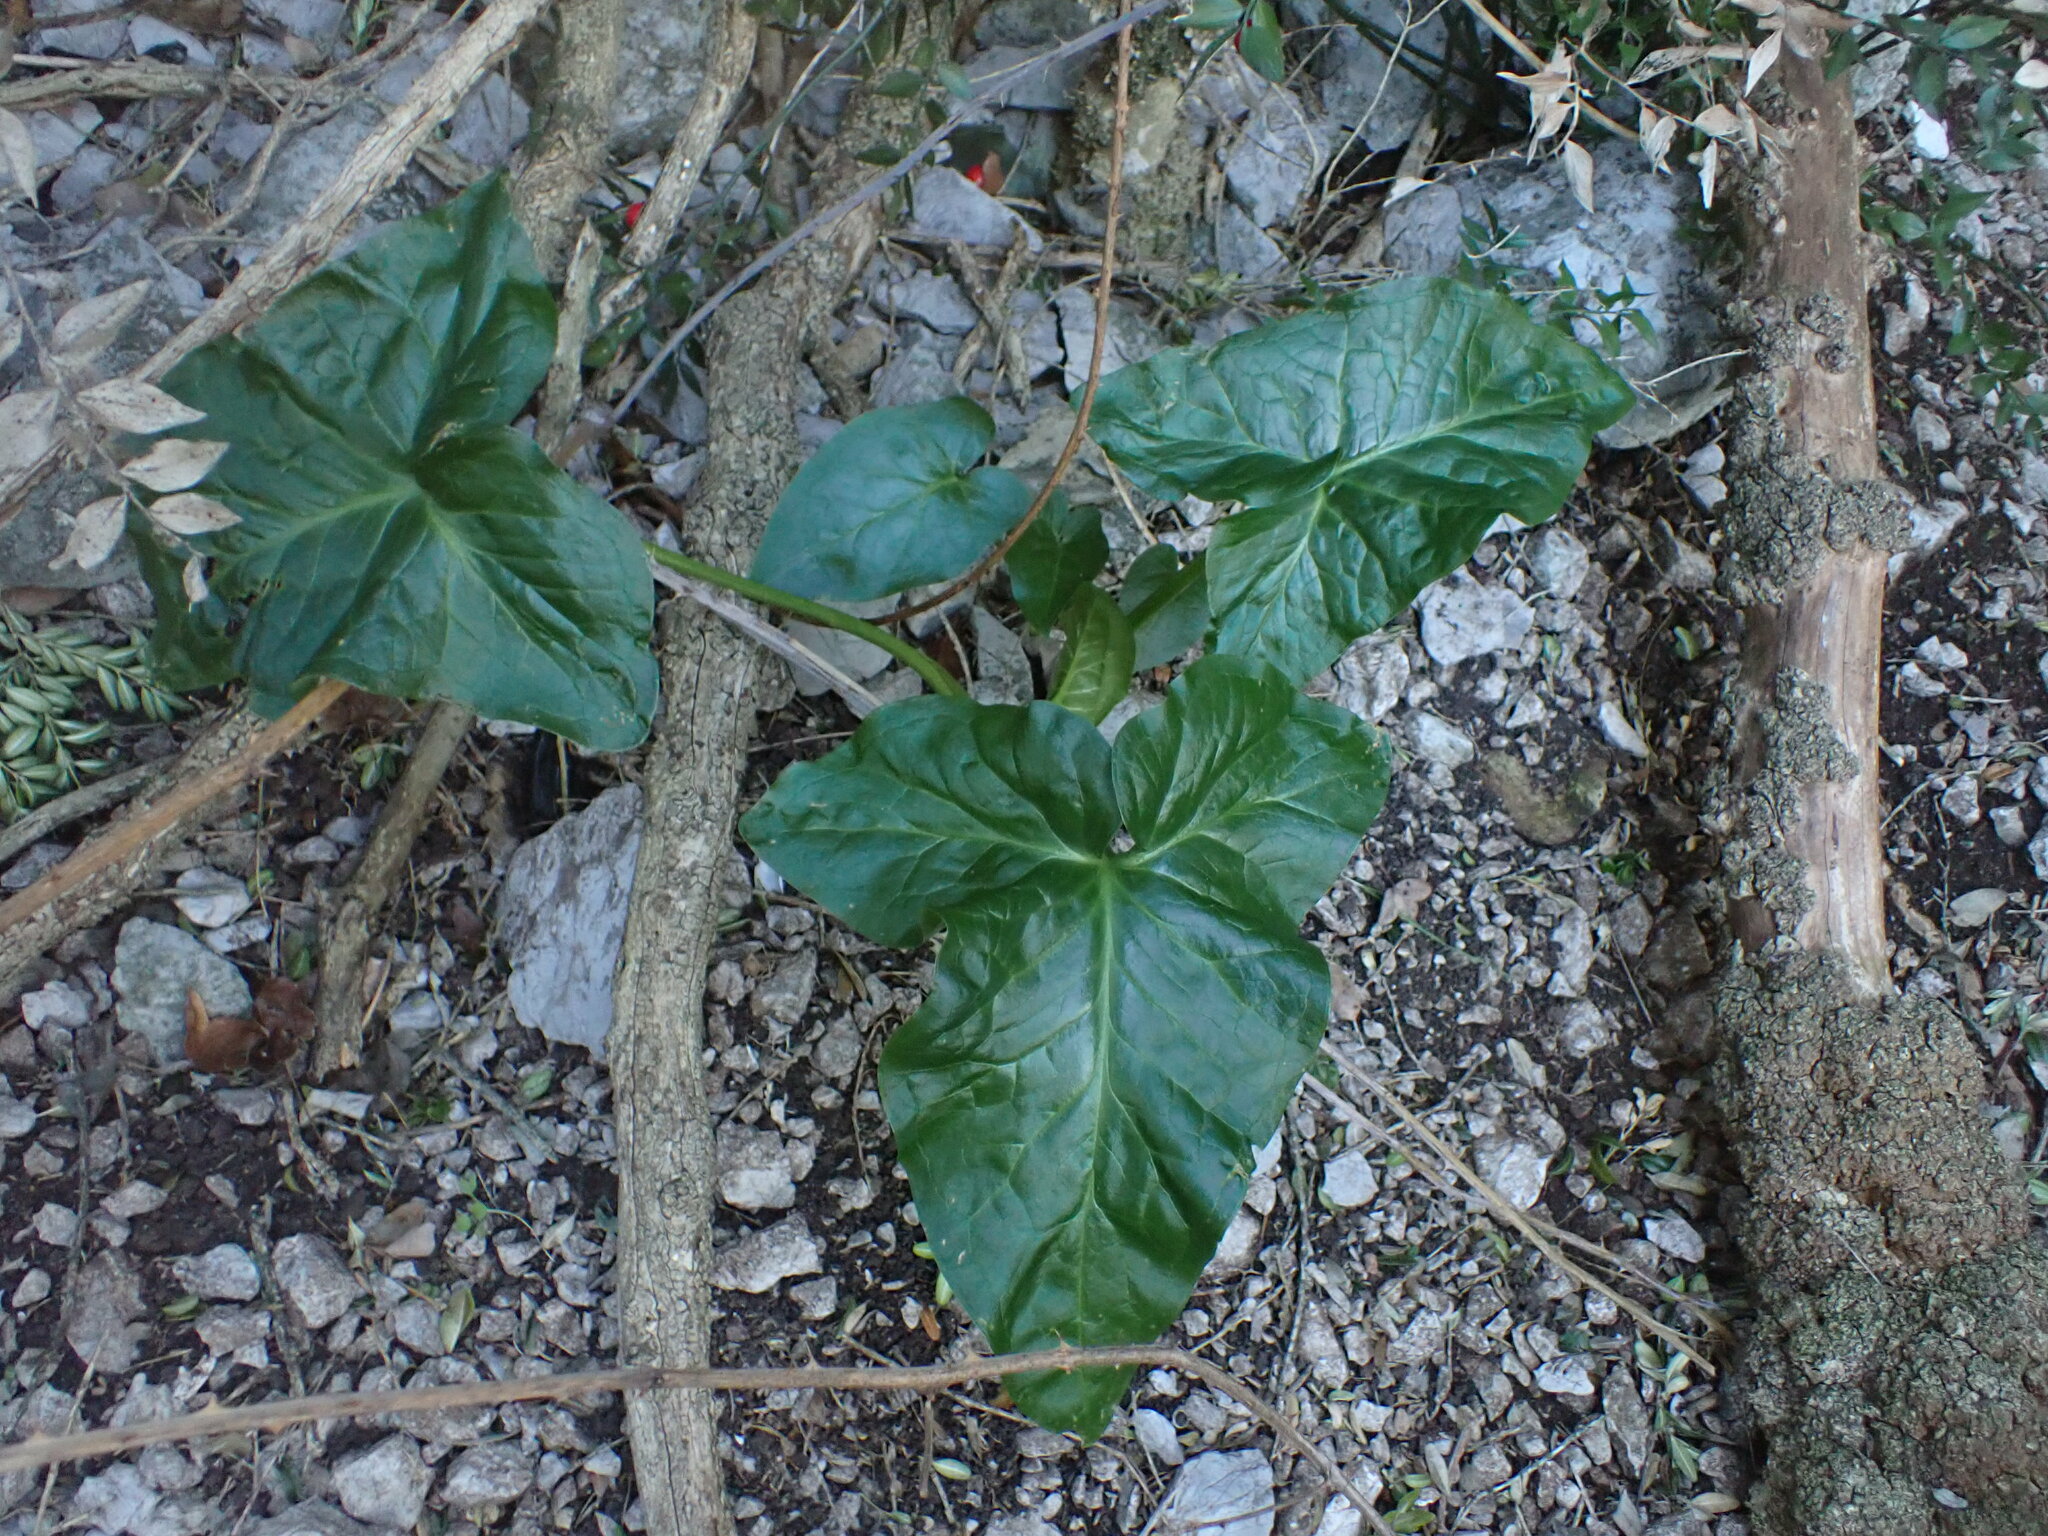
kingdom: Plantae
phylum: Tracheophyta
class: Liliopsida
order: Alismatales
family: Araceae
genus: Arum
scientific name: Arum italicum
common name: Italian lords-and-ladies
